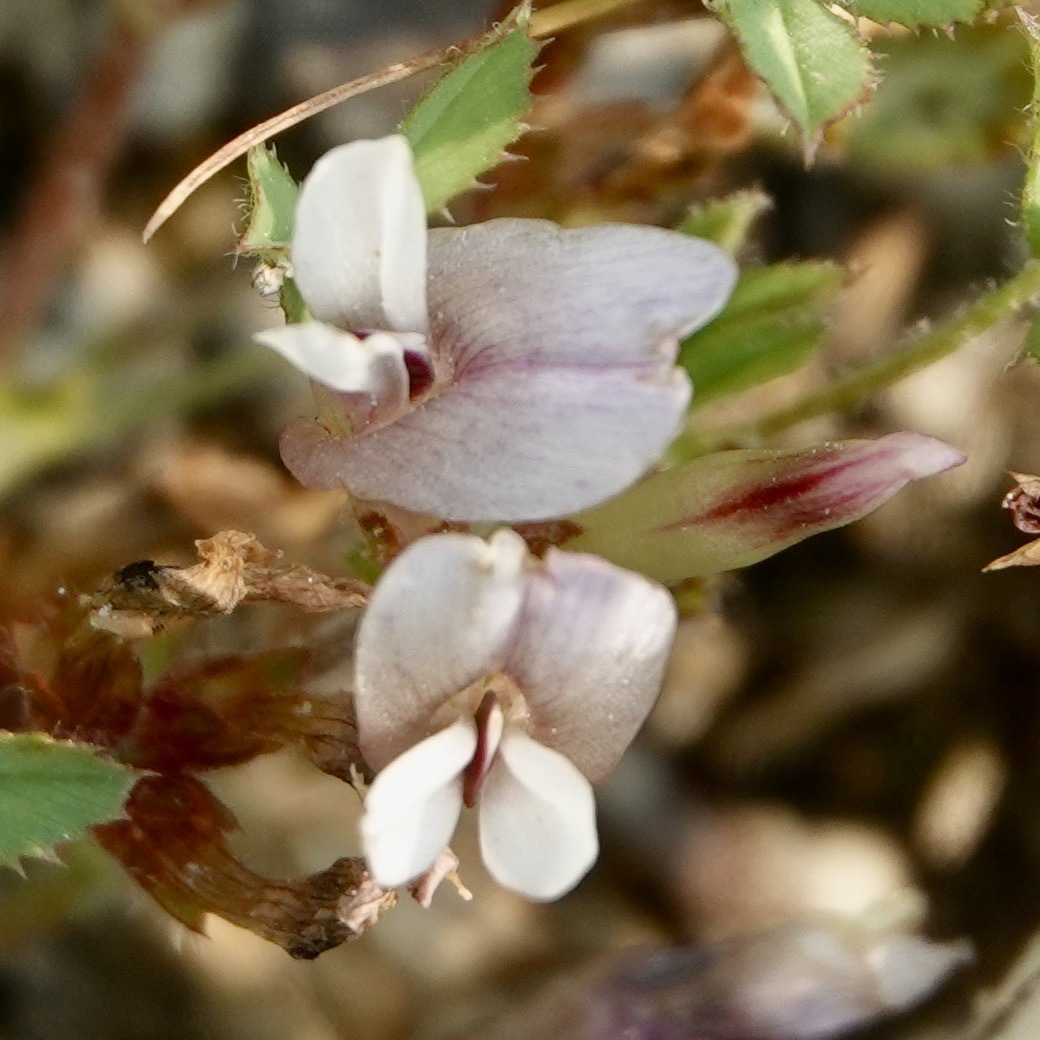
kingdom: Plantae
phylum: Tracheophyta
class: Magnoliopsida
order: Fabales
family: Fabaceae
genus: Trifolium
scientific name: Trifolium monanthum
